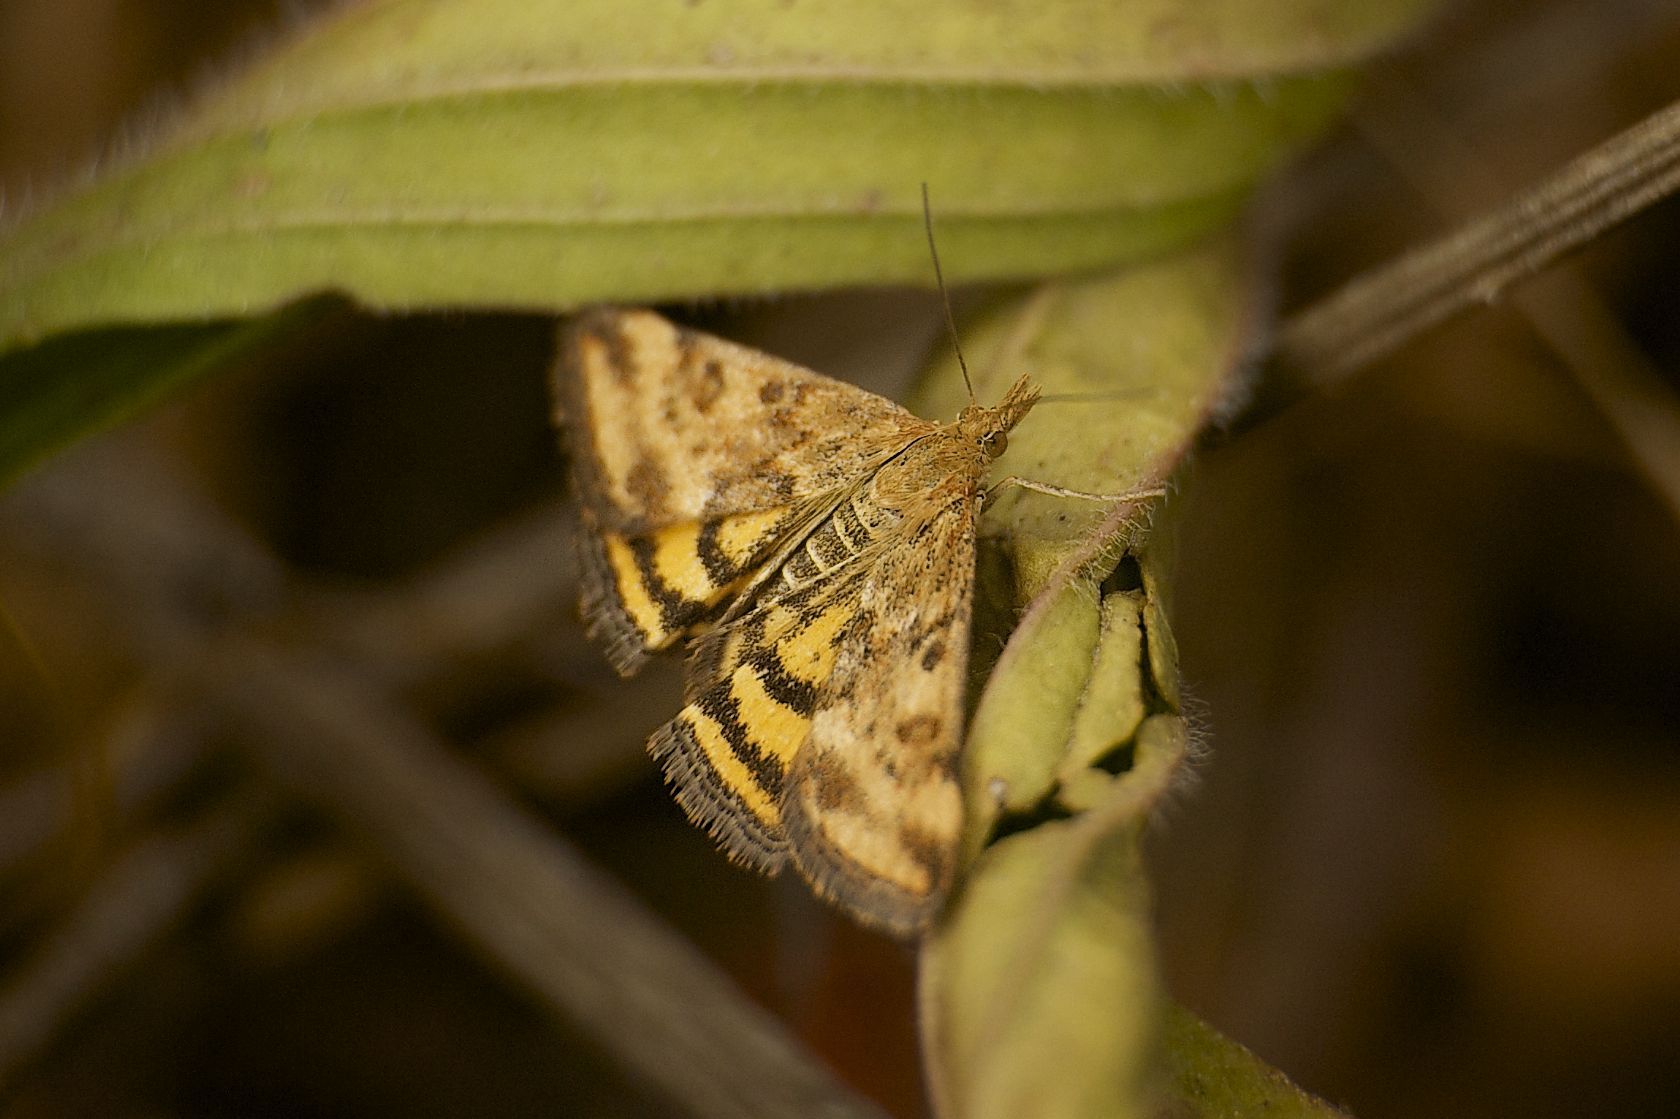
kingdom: Animalia
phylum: Arthropoda
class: Insecta
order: Lepidoptera
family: Crambidae
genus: Pyrausta
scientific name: Pyrausta subsequalis
